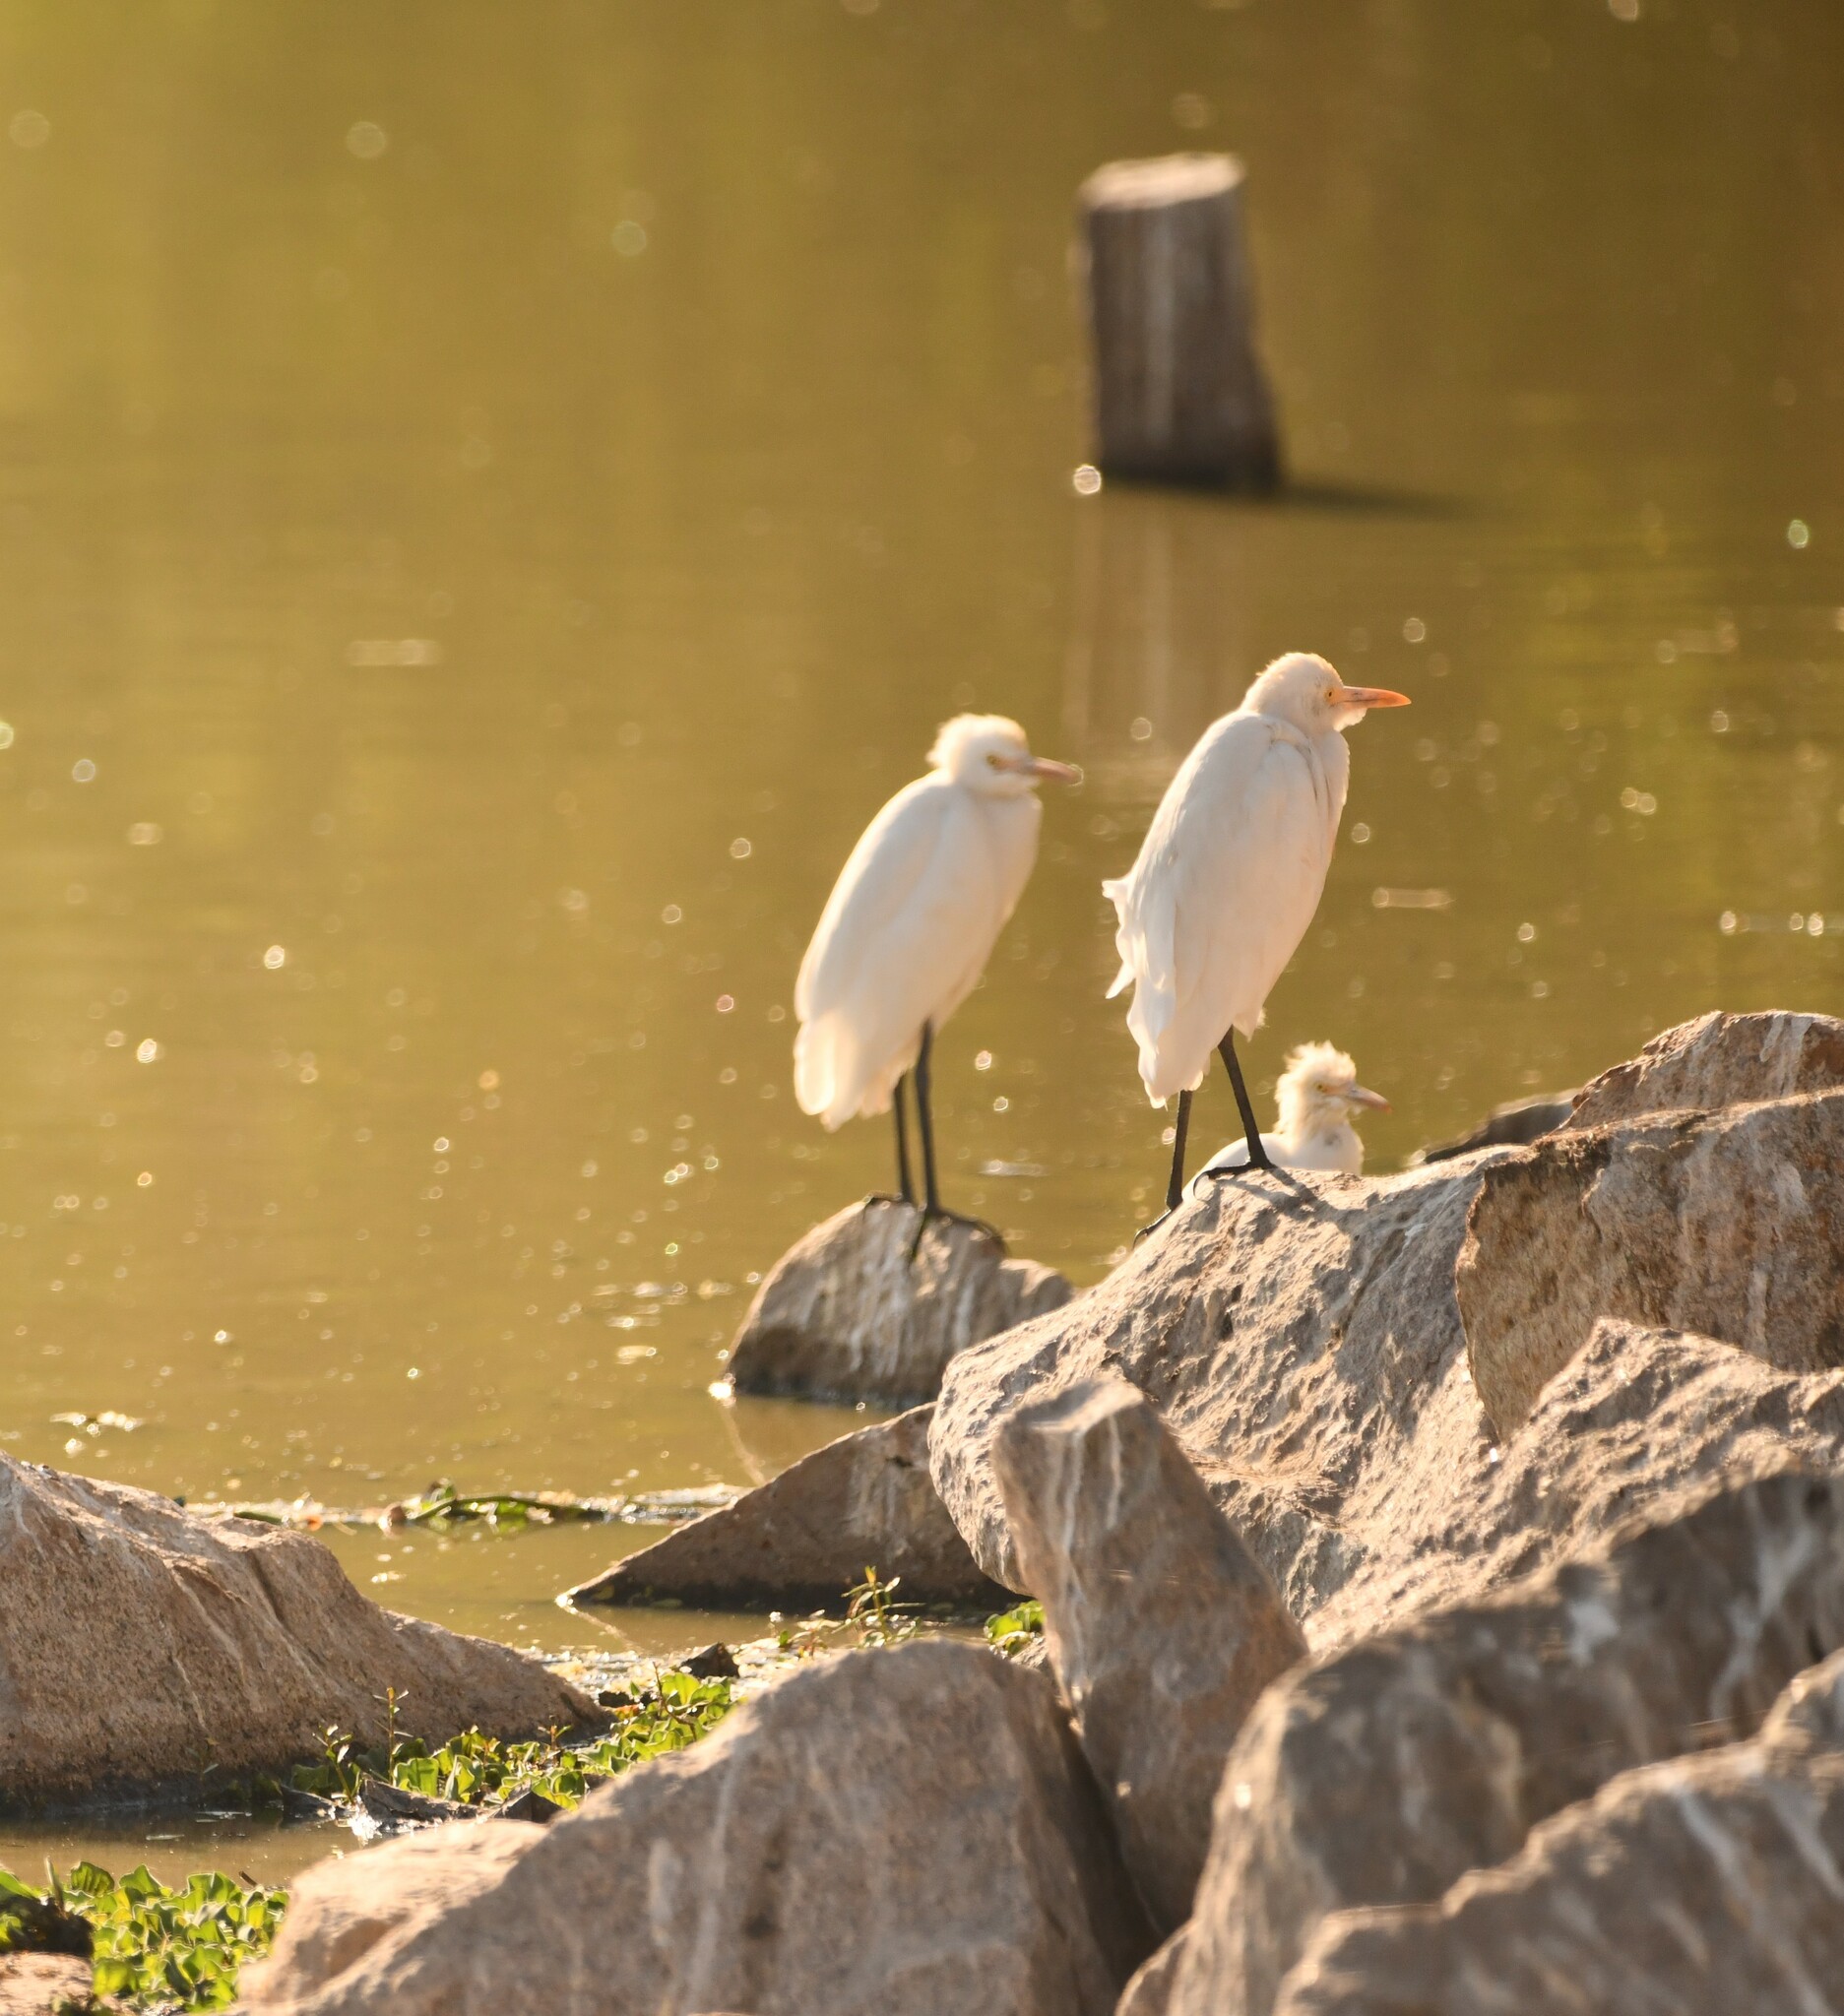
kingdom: Animalia
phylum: Chordata
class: Aves
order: Pelecaniformes
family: Ardeidae
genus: Bubulcus
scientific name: Bubulcus coromandus
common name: Eastern cattle egret
